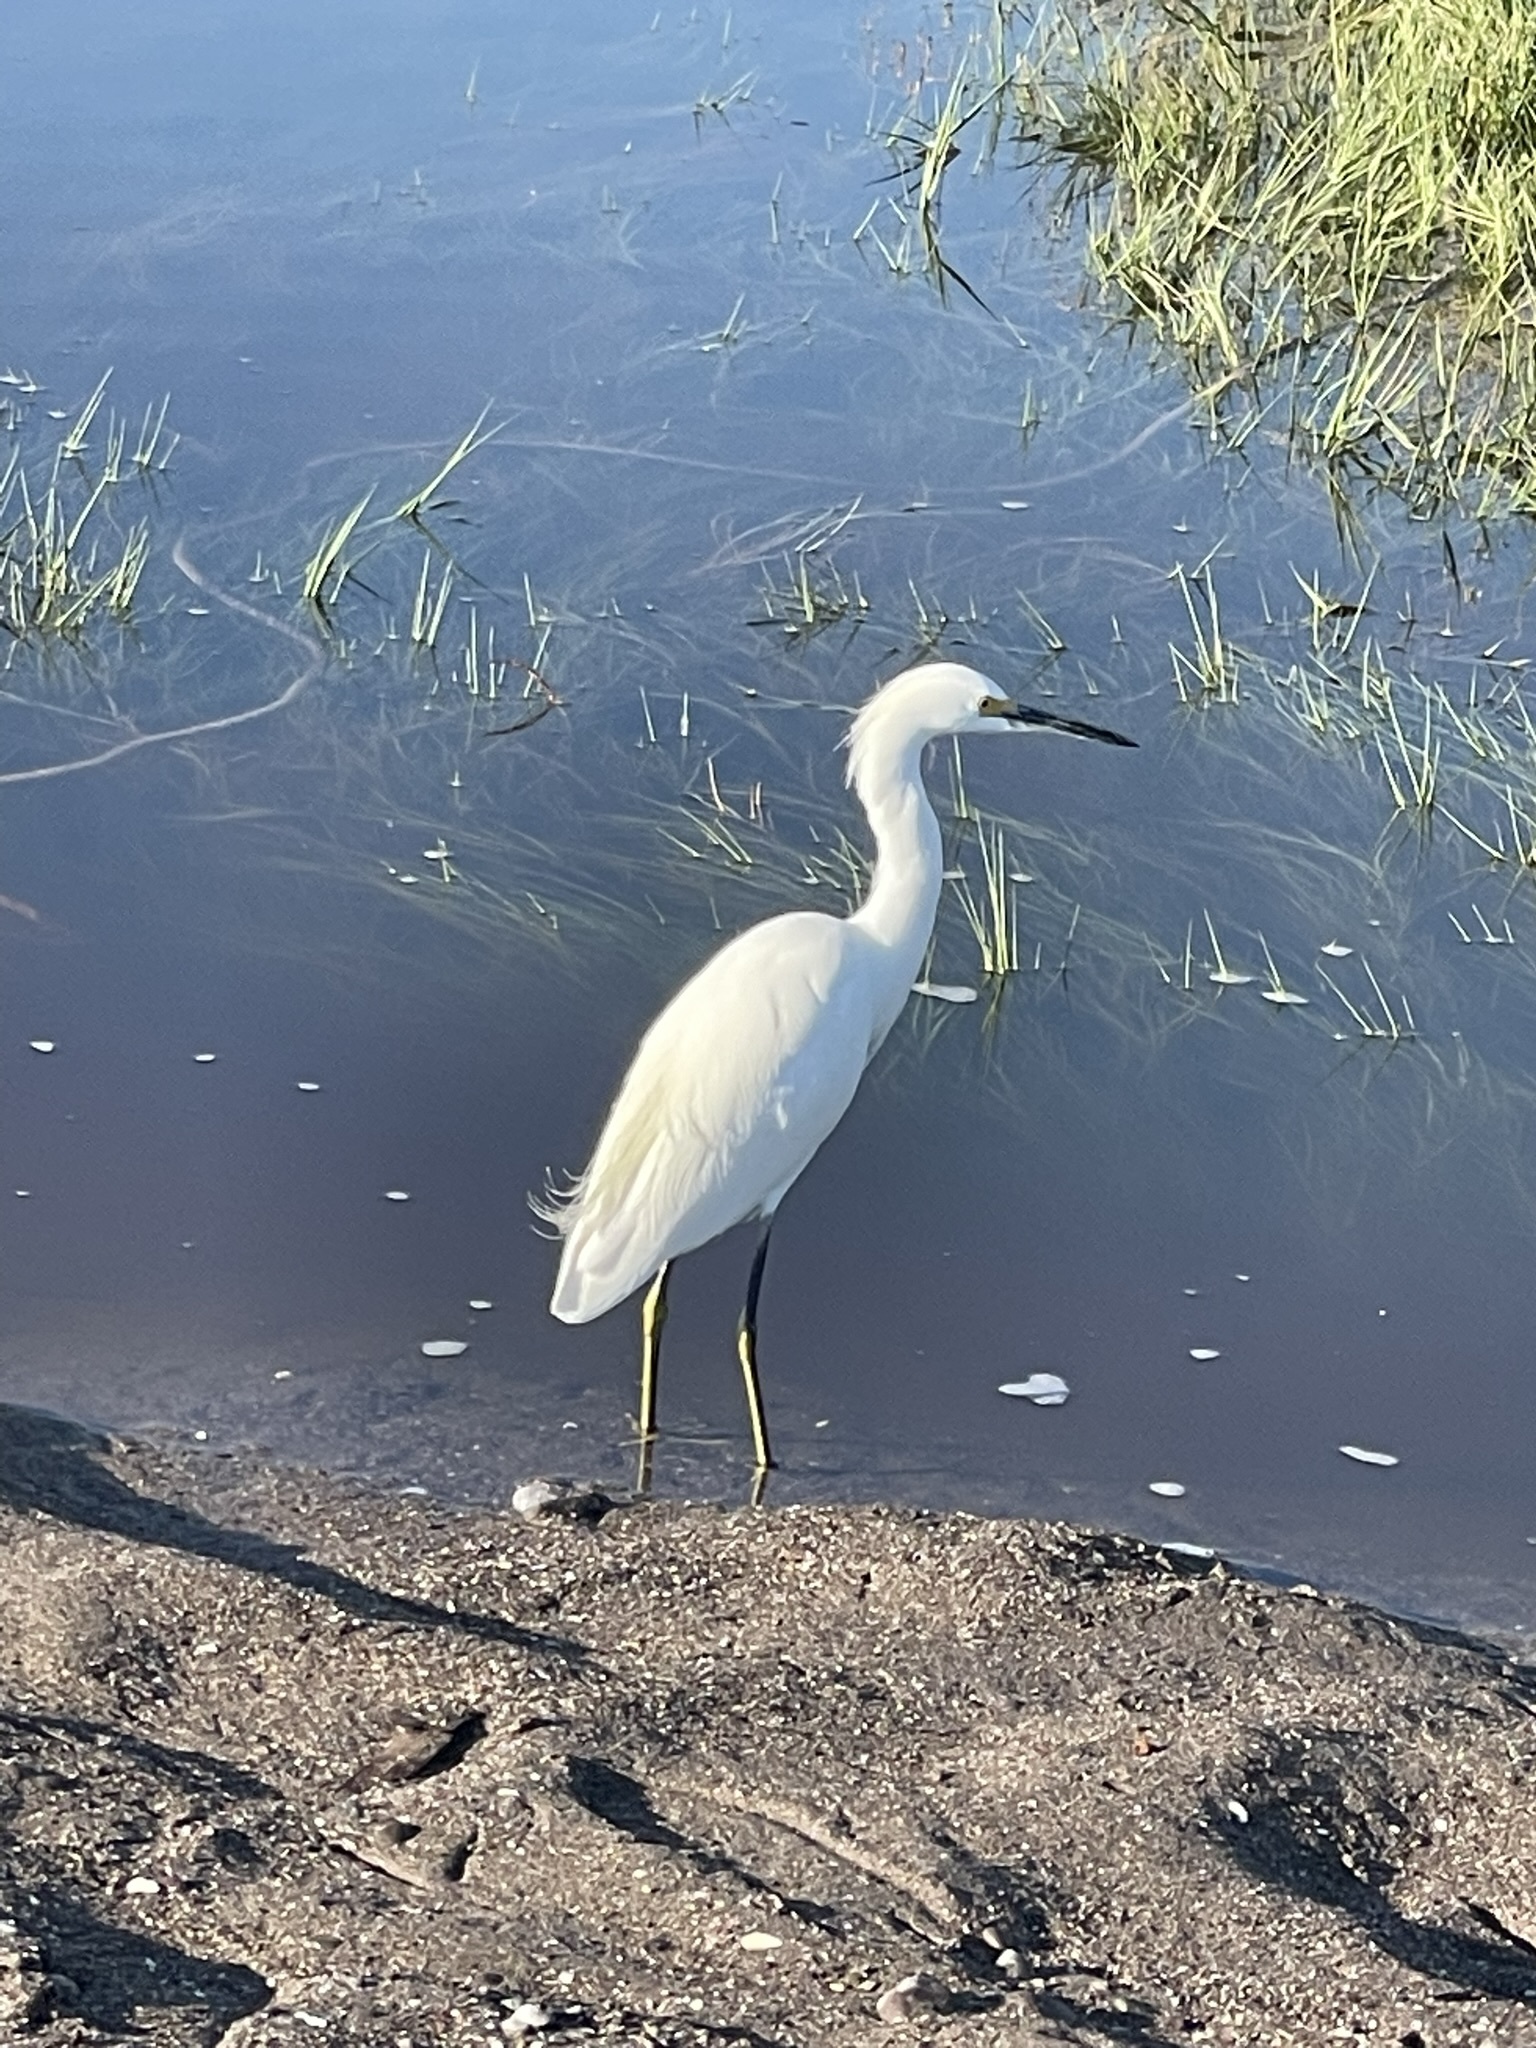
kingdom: Animalia
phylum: Chordata
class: Aves
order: Pelecaniformes
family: Ardeidae
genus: Egretta
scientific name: Egretta thula
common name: Snowy egret
